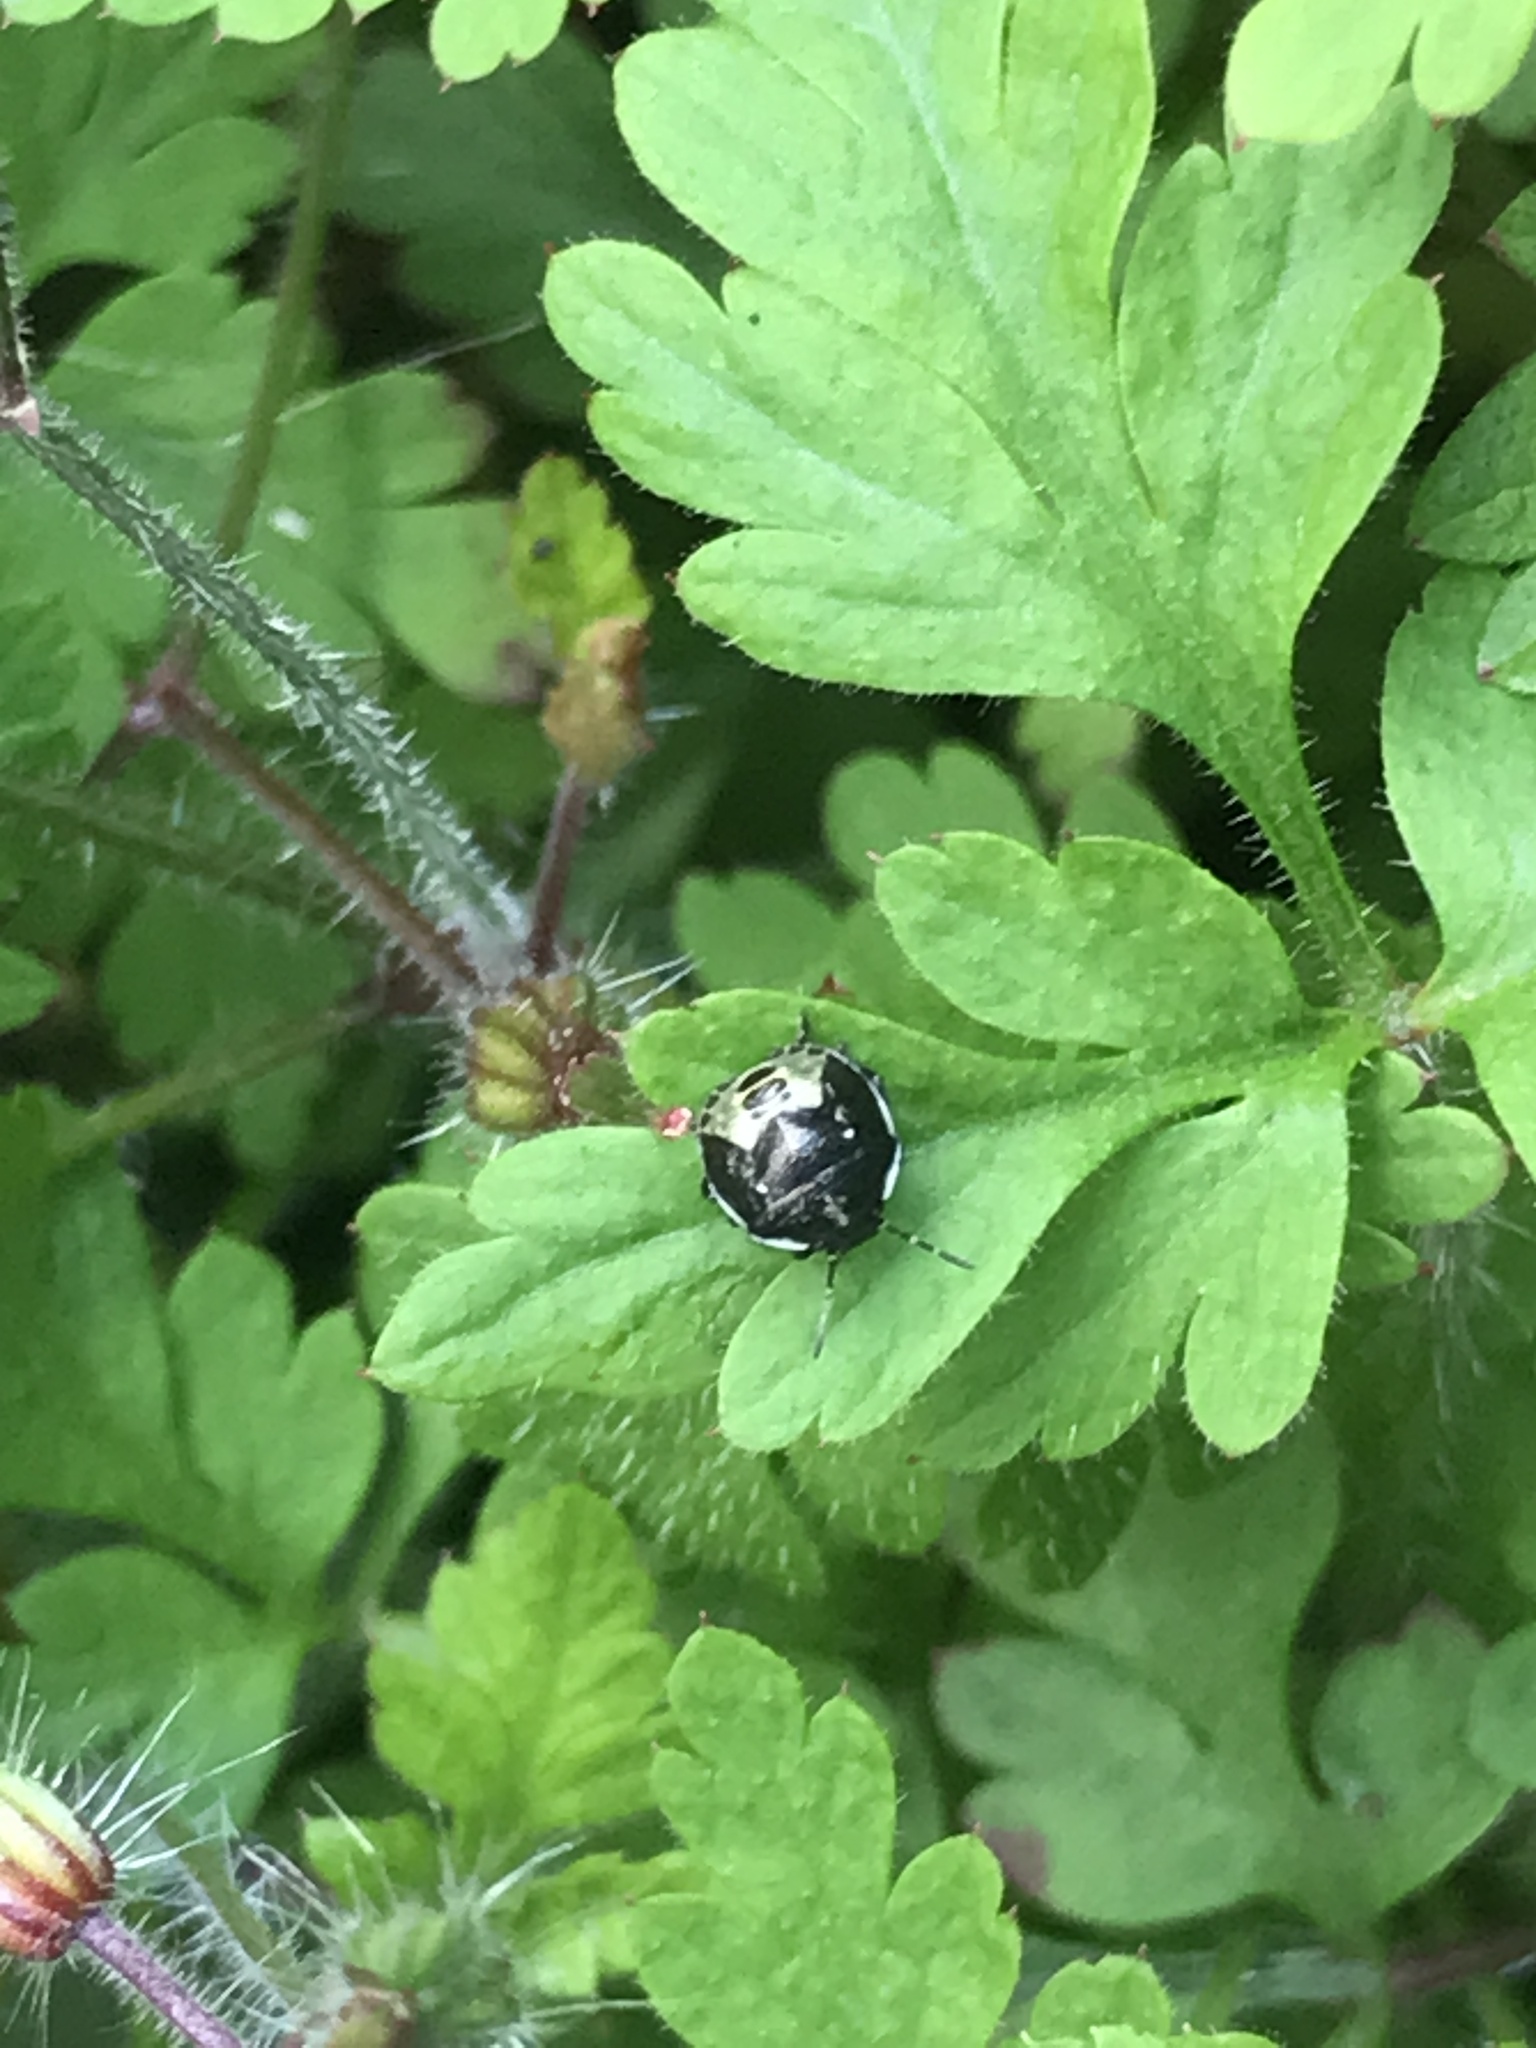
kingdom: Animalia
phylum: Arthropoda
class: Insecta
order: Hemiptera
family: Pentatomidae
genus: Eysarcoris
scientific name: Eysarcoris venustissimus
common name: Woundwort shieldbug
